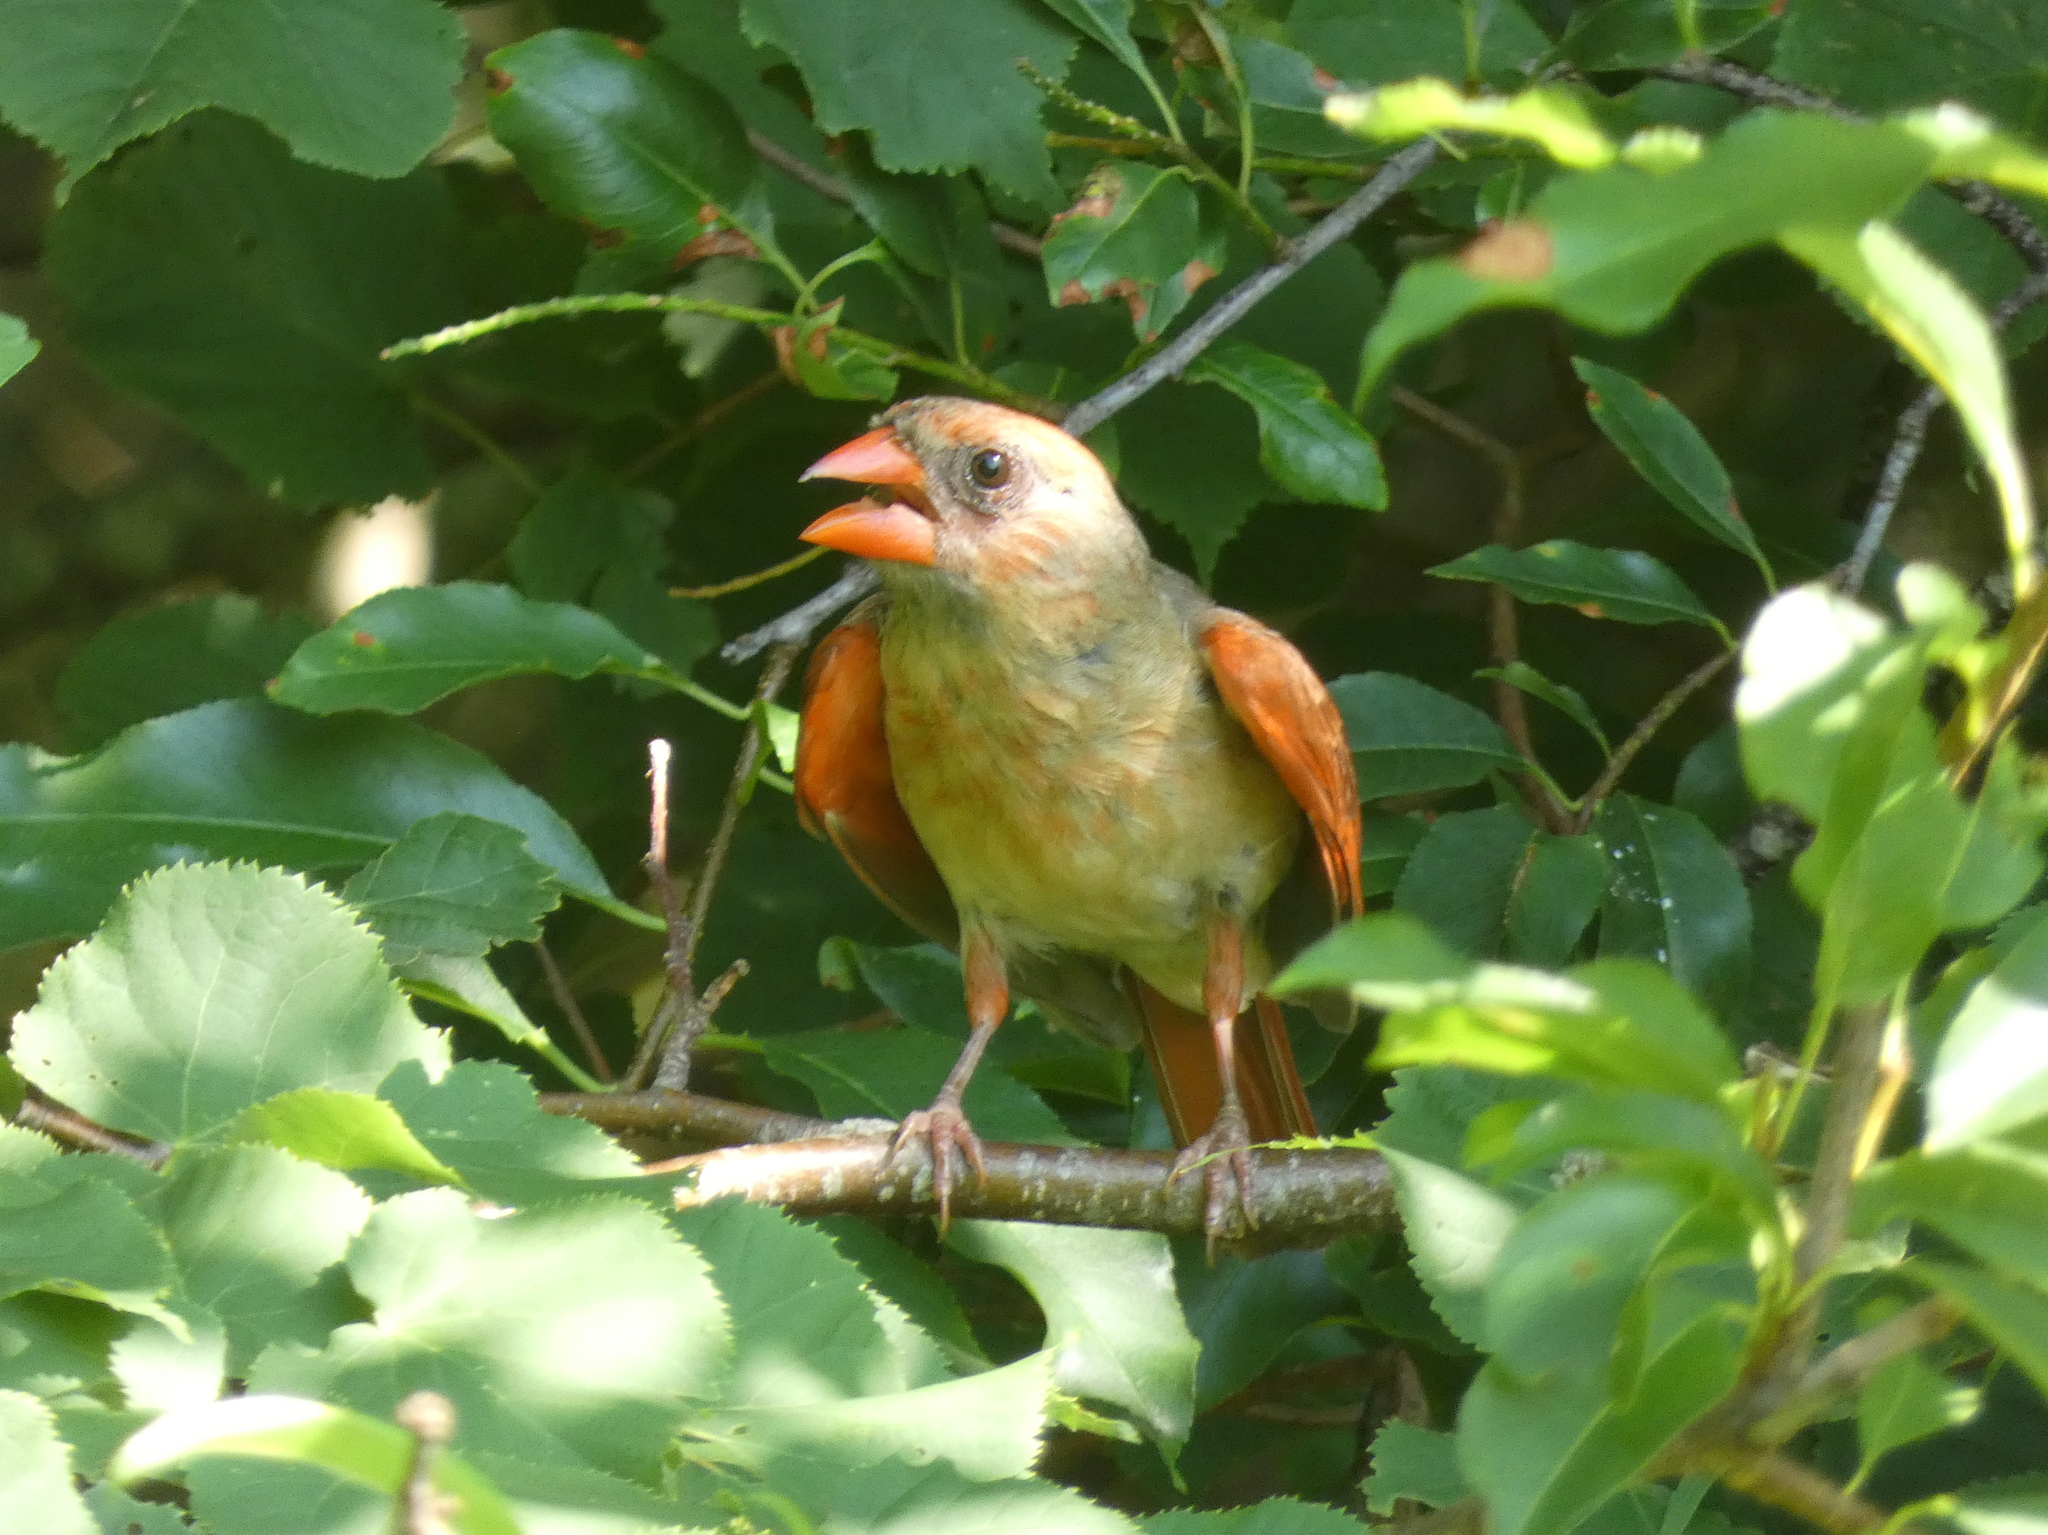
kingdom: Animalia
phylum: Chordata
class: Aves
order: Passeriformes
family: Cardinalidae
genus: Cardinalis
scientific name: Cardinalis cardinalis
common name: Northern cardinal
